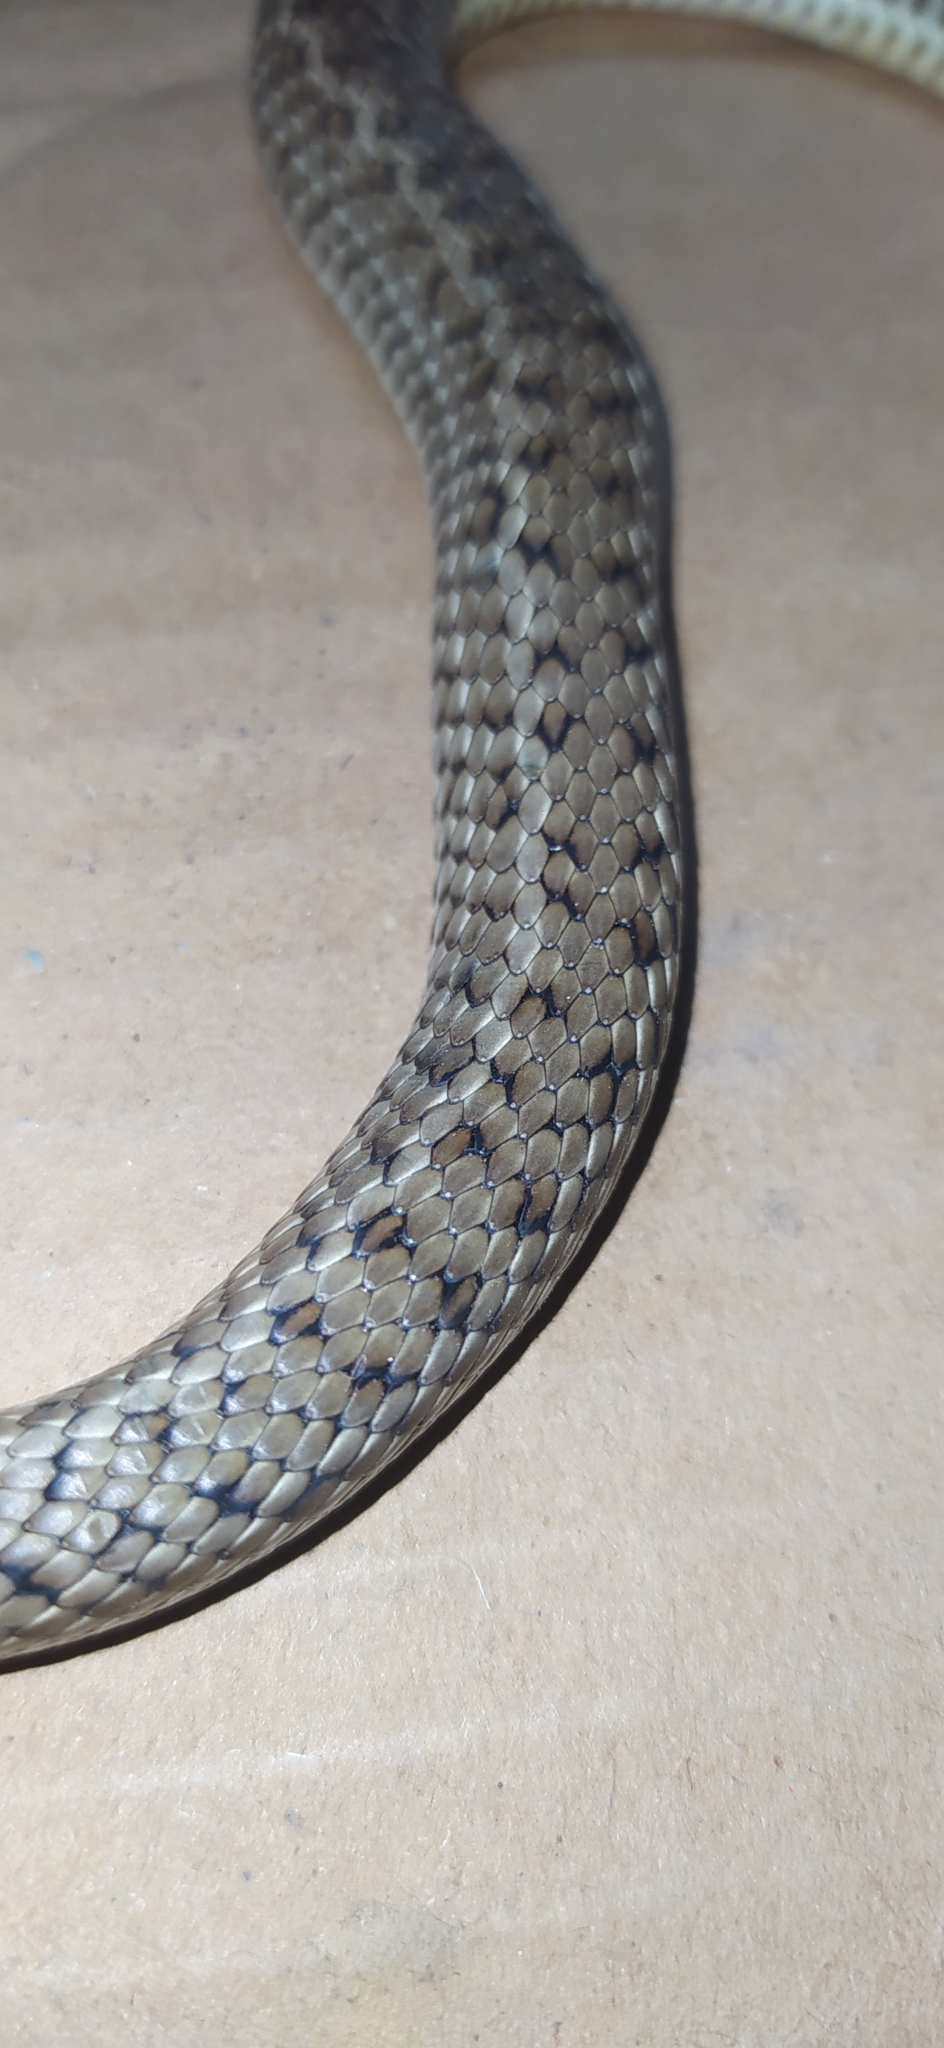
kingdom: Animalia
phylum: Chordata
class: Squamata
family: Colubridae
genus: Philodryas
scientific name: Philodryas patagoniensis
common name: Patagonia green racer
